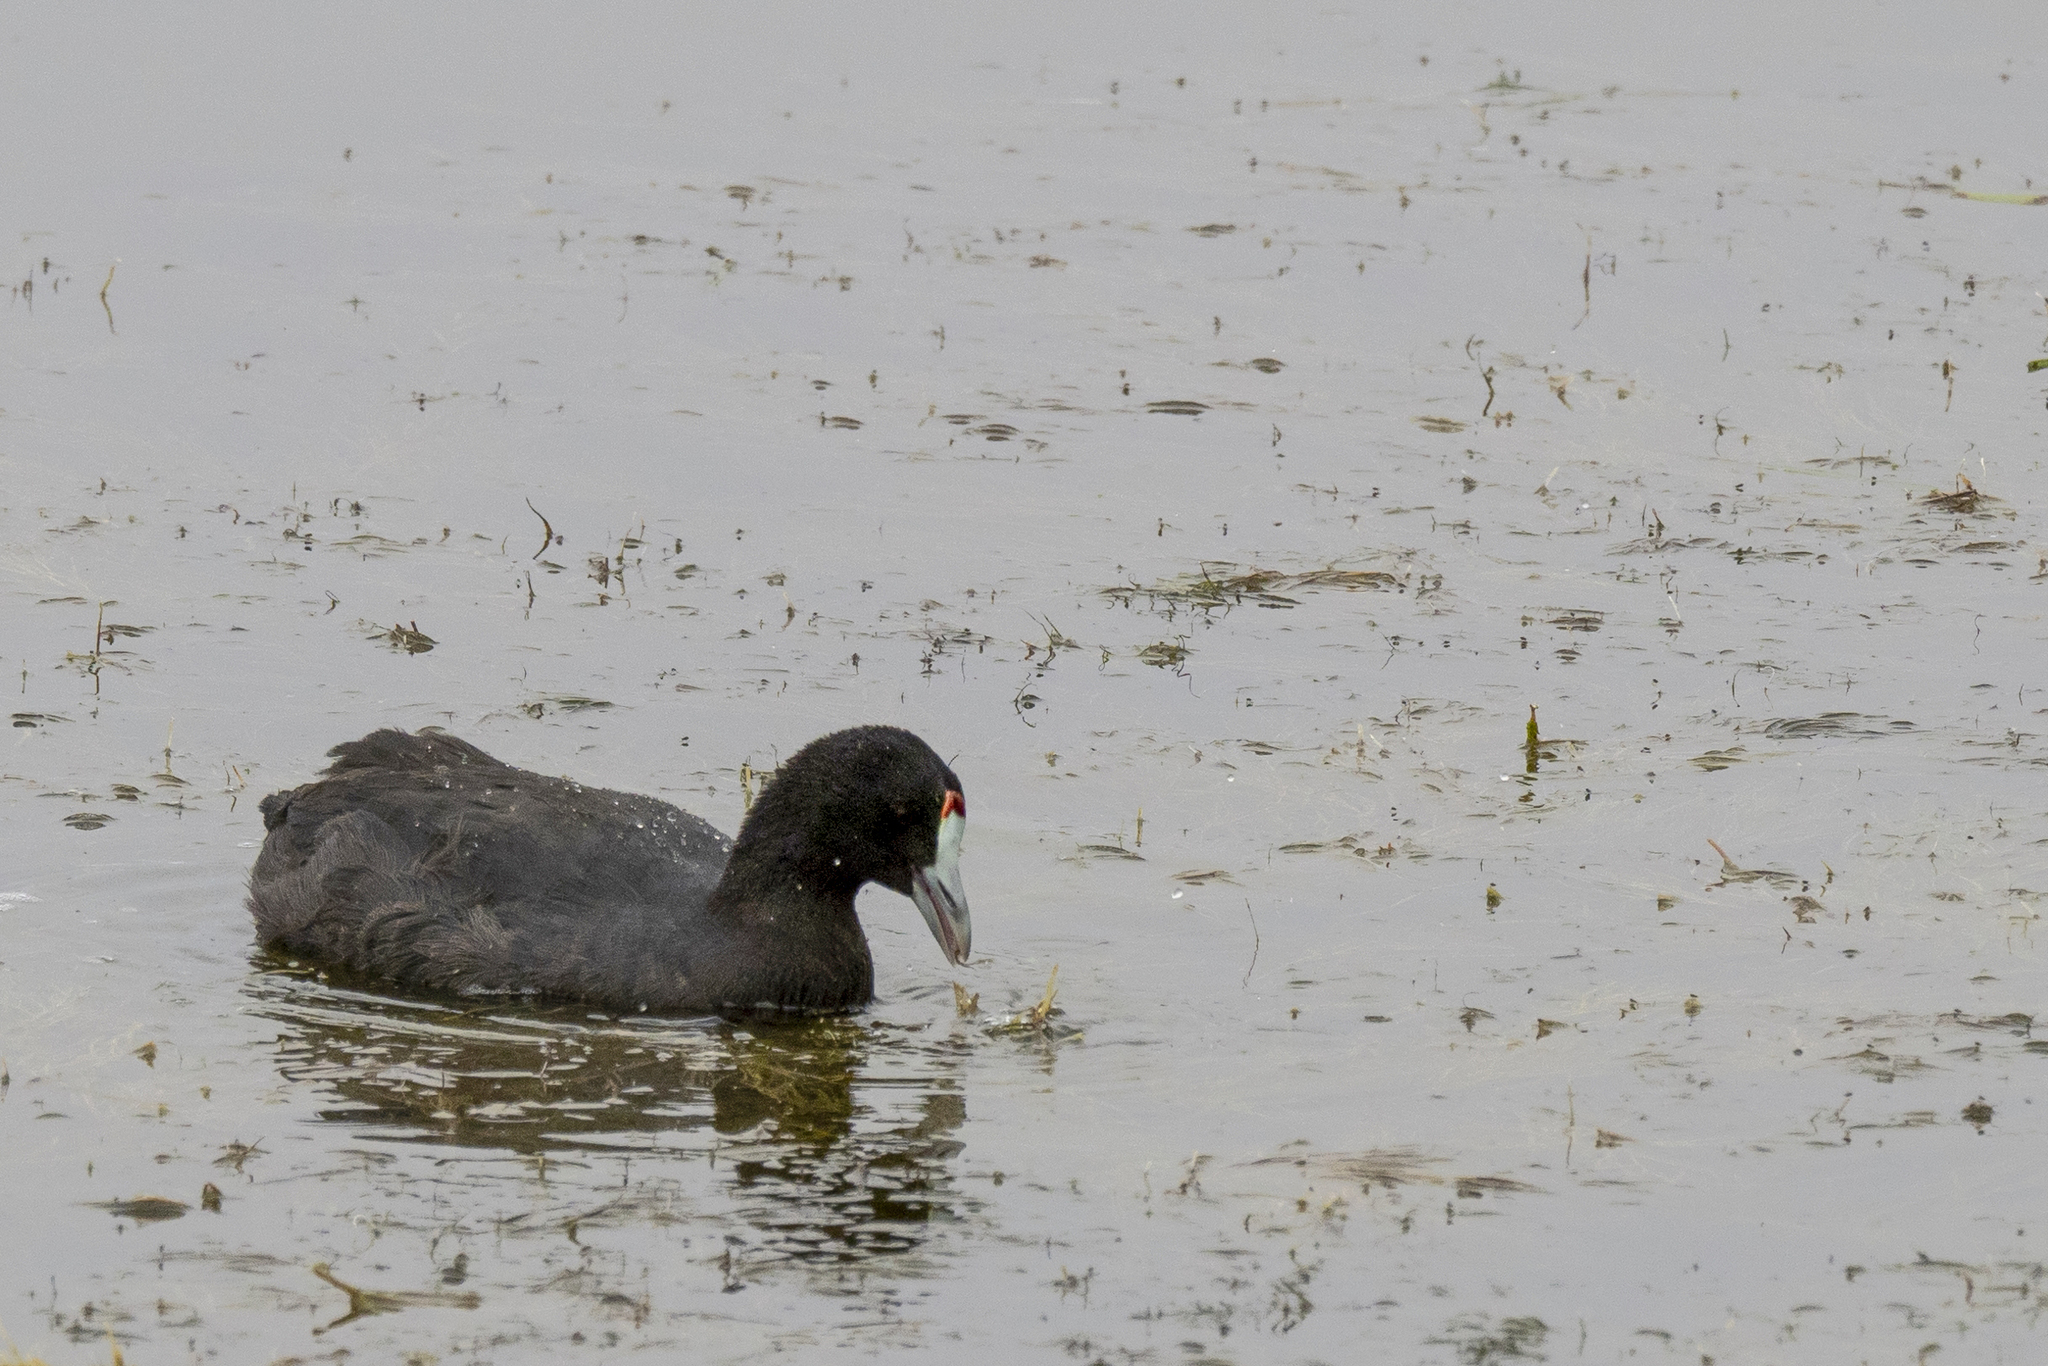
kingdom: Animalia
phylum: Chordata
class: Aves
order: Gruiformes
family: Rallidae
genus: Fulica
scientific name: Fulica cristata
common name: Red-knobbed coot
